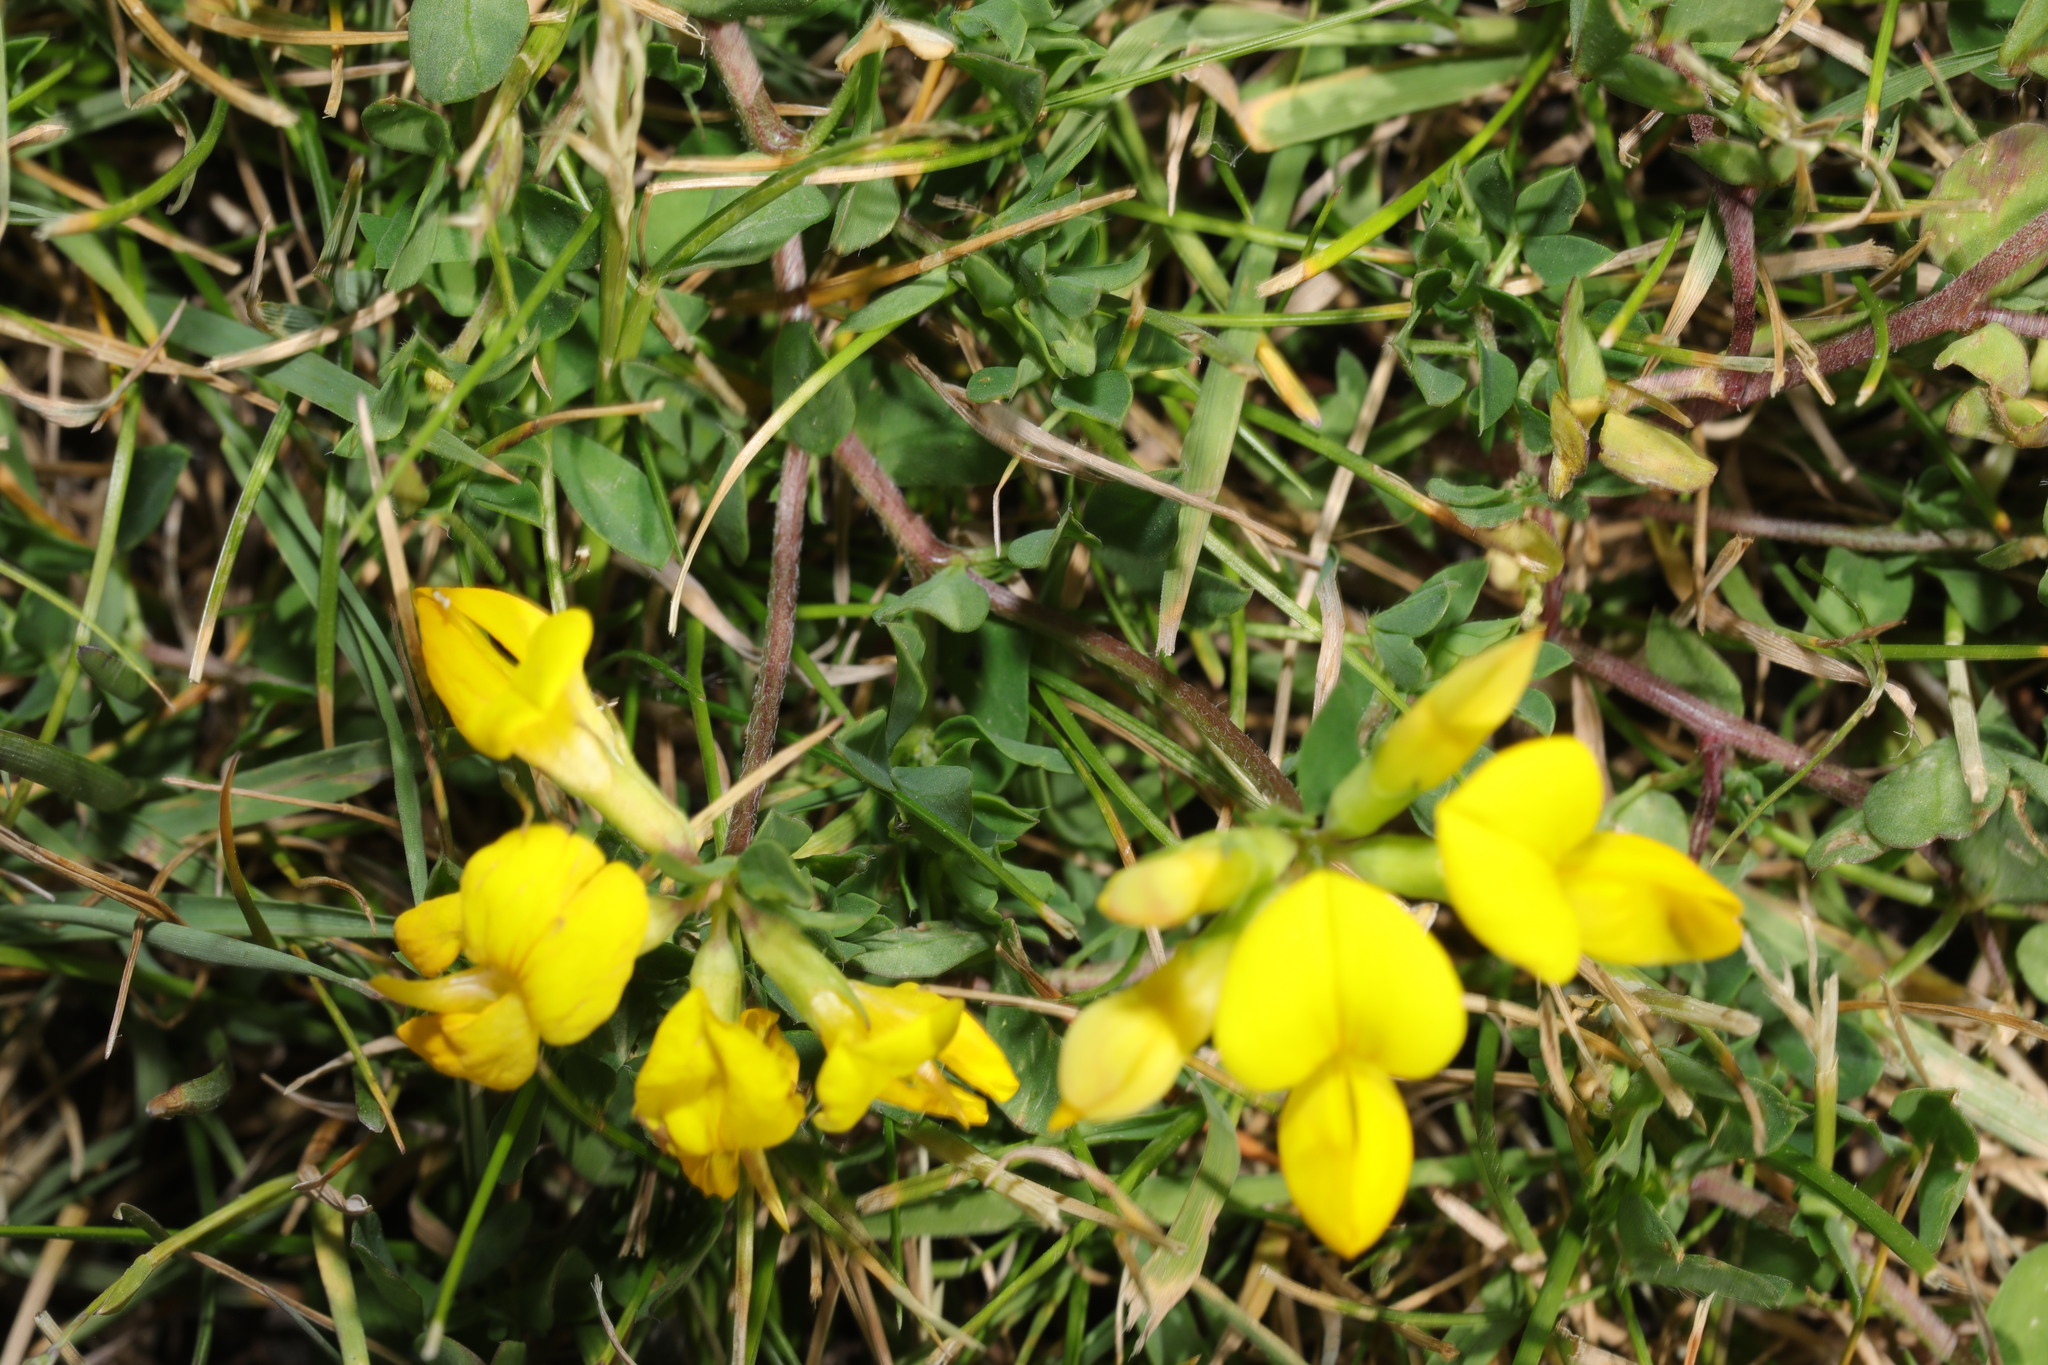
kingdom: Plantae
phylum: Tracheophyta
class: Magnoliopsida
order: Fabales
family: Fabaceae
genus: Lotus
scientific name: Lotus corniculatus
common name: Common bird's-foot-trefoil
